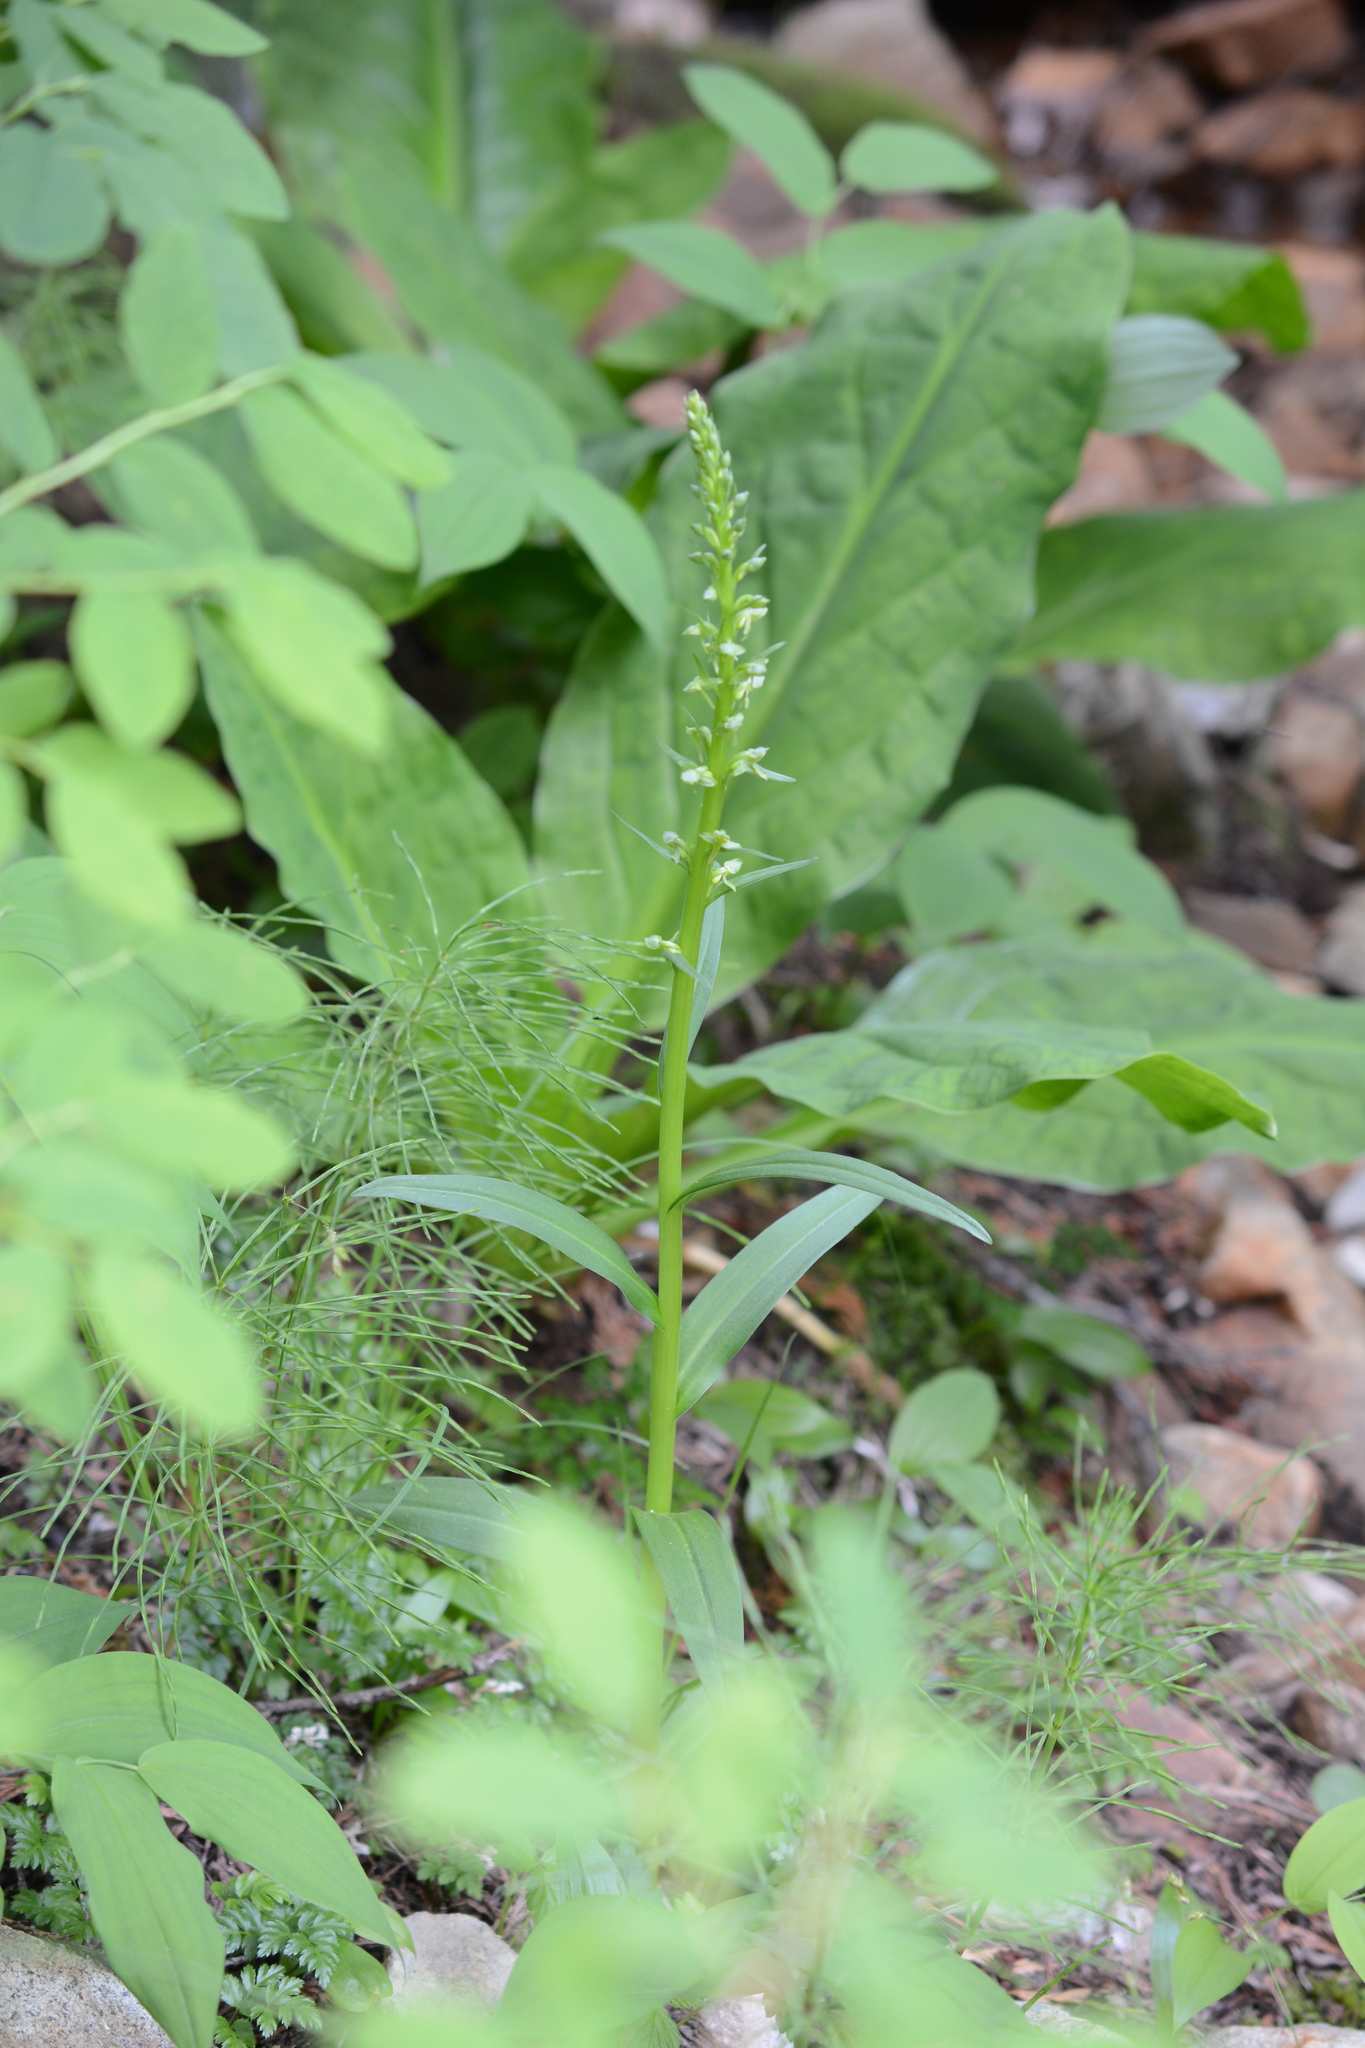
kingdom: Plantae
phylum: Tracheophyta
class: Liliopsida
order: Asparagales
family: Orchidaceae
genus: Platanthera
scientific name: Platanthera stricta
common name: Slender bog orchid
